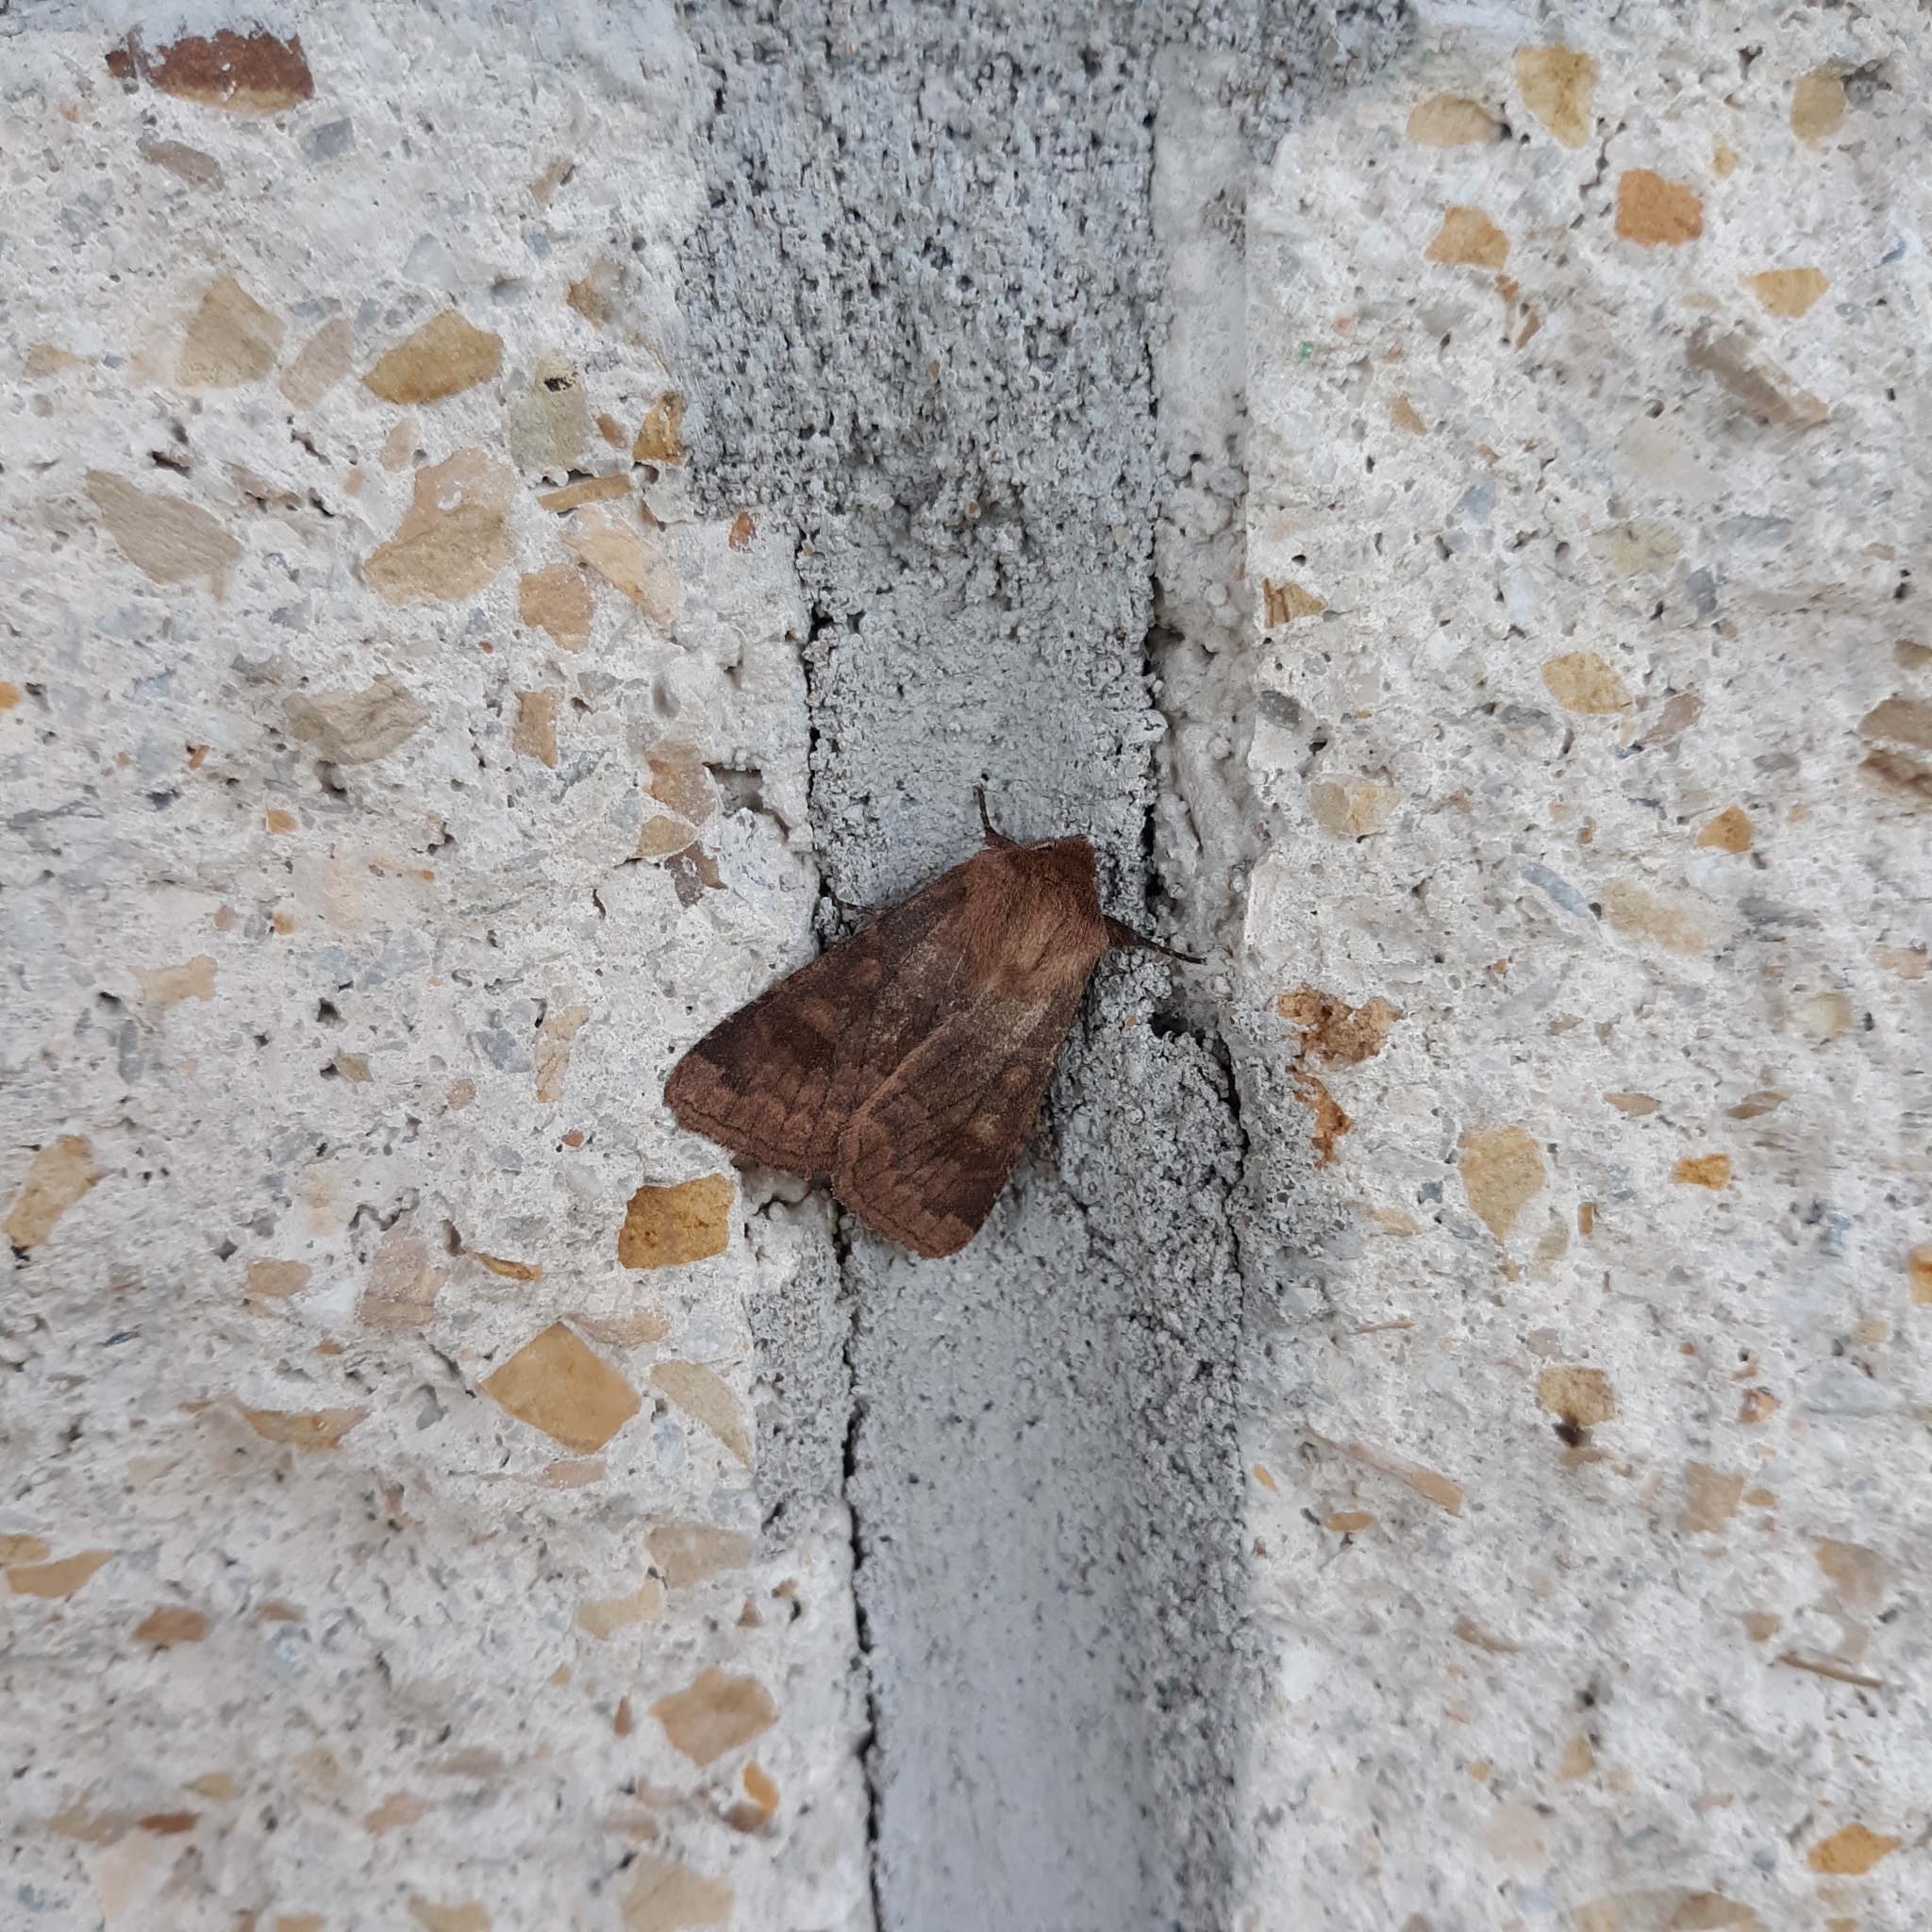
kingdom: Animalia
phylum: Arthropoda
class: Insecta
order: Lepidoptera
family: Noctuidae
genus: Nephelodes
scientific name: Nephelodes minians
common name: Bronzed cutworm
